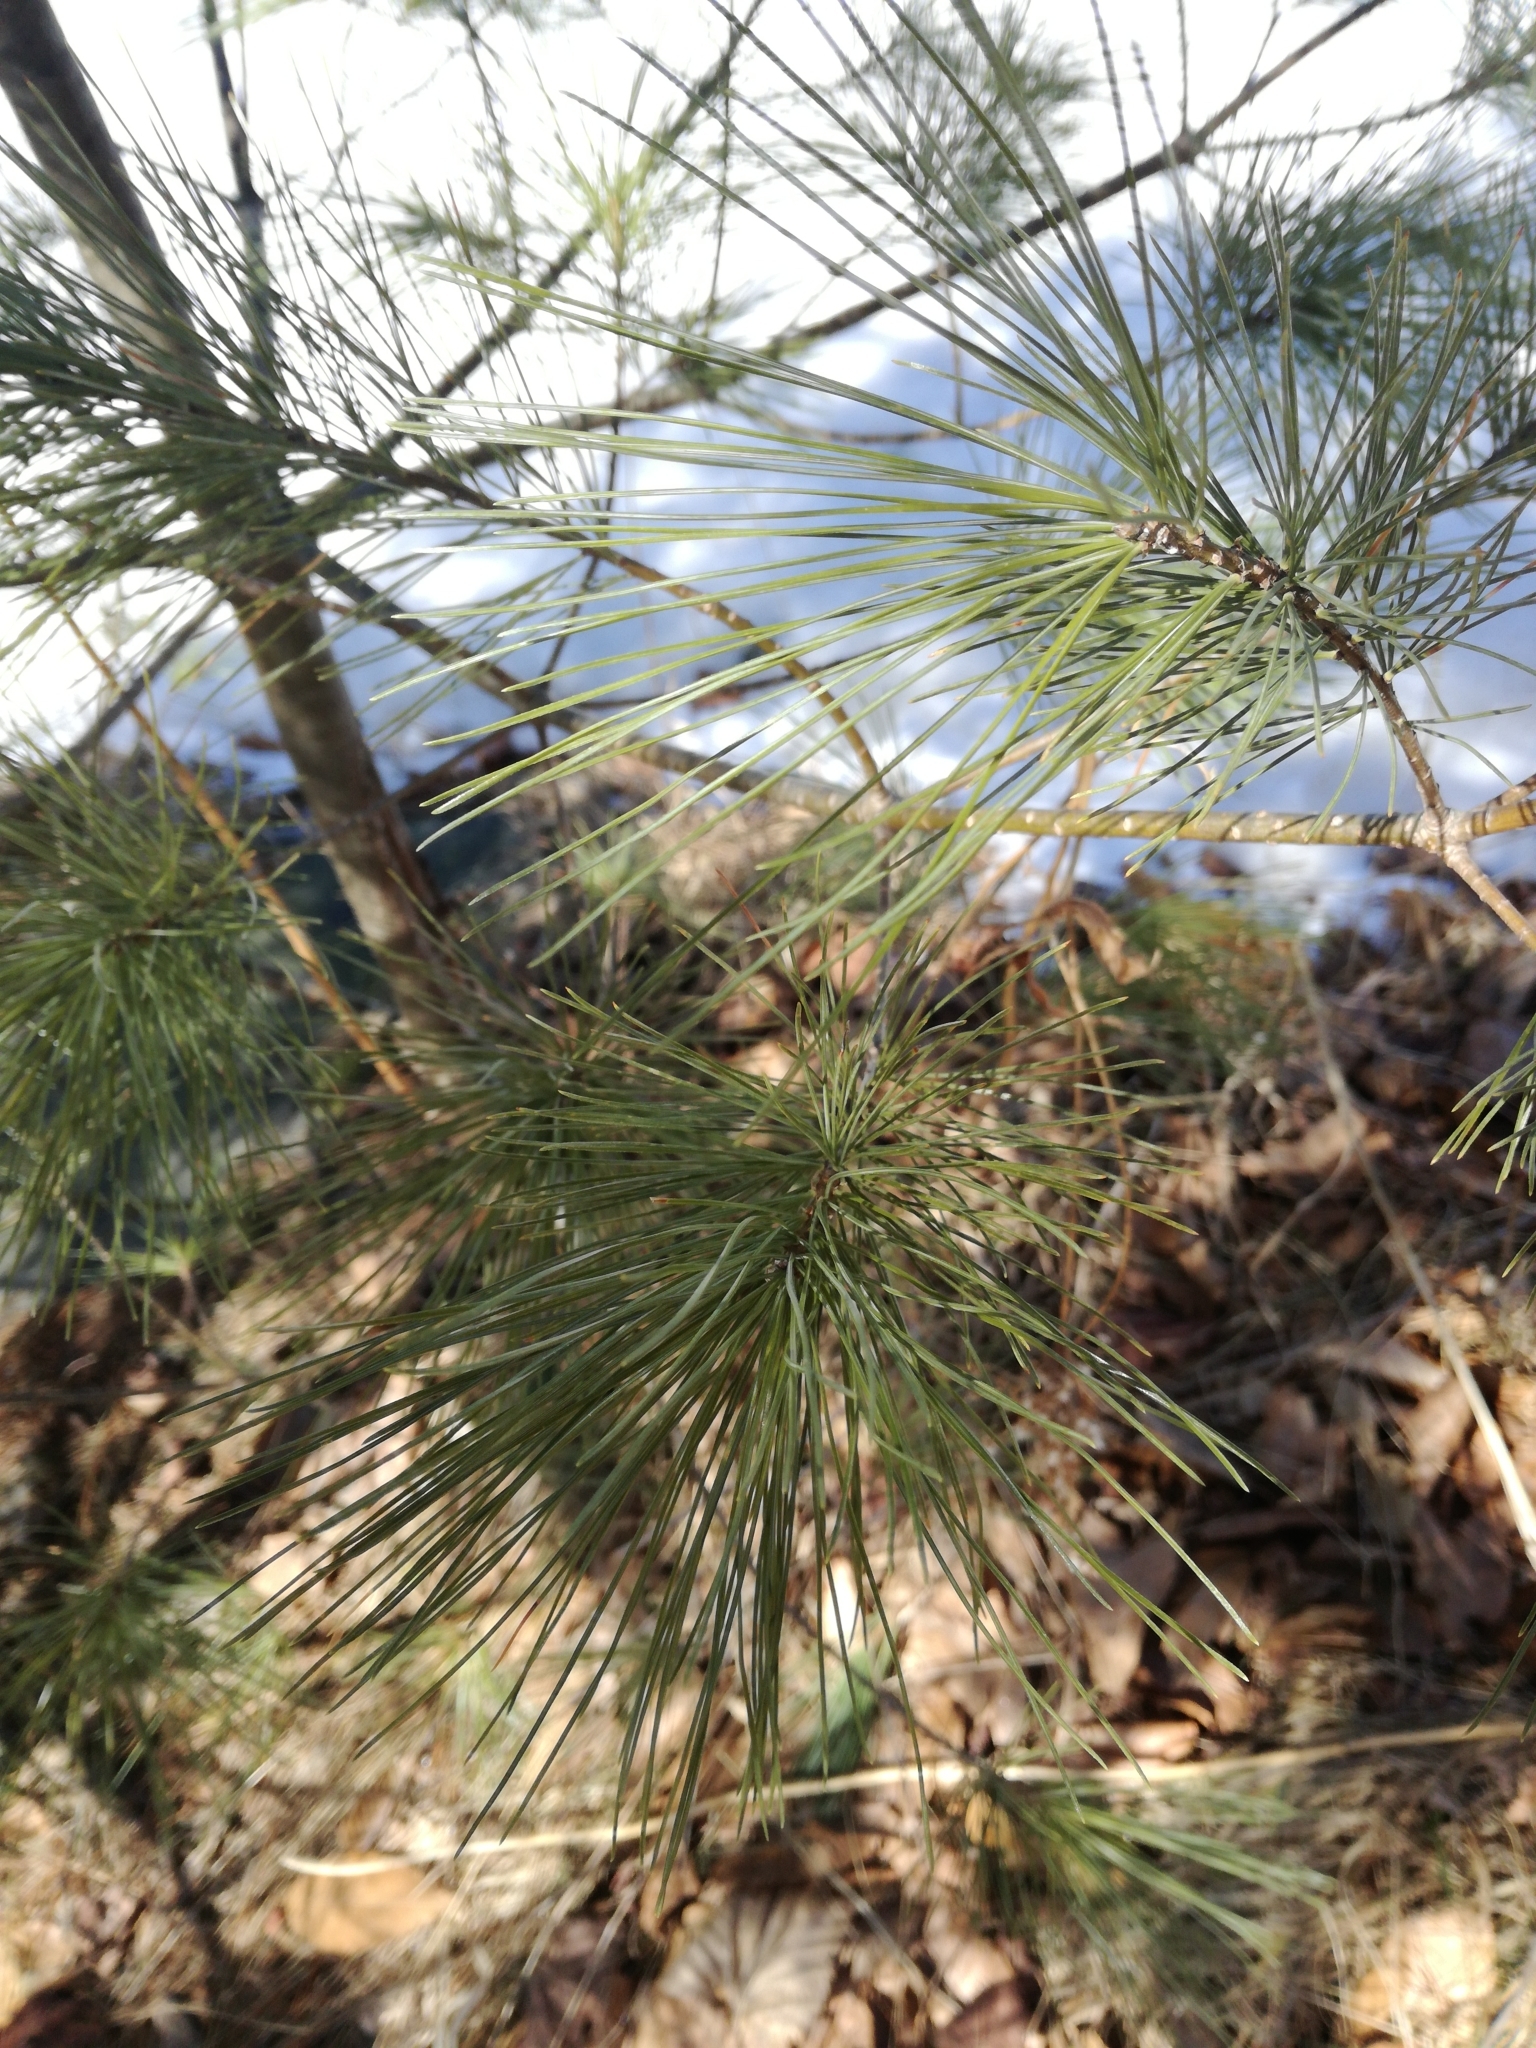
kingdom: Plantae
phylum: Tracheophyta
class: Pinopsida
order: Pinales
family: Pinaceae
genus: Pinus
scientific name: Pinus strobus
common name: Weymouth pine
